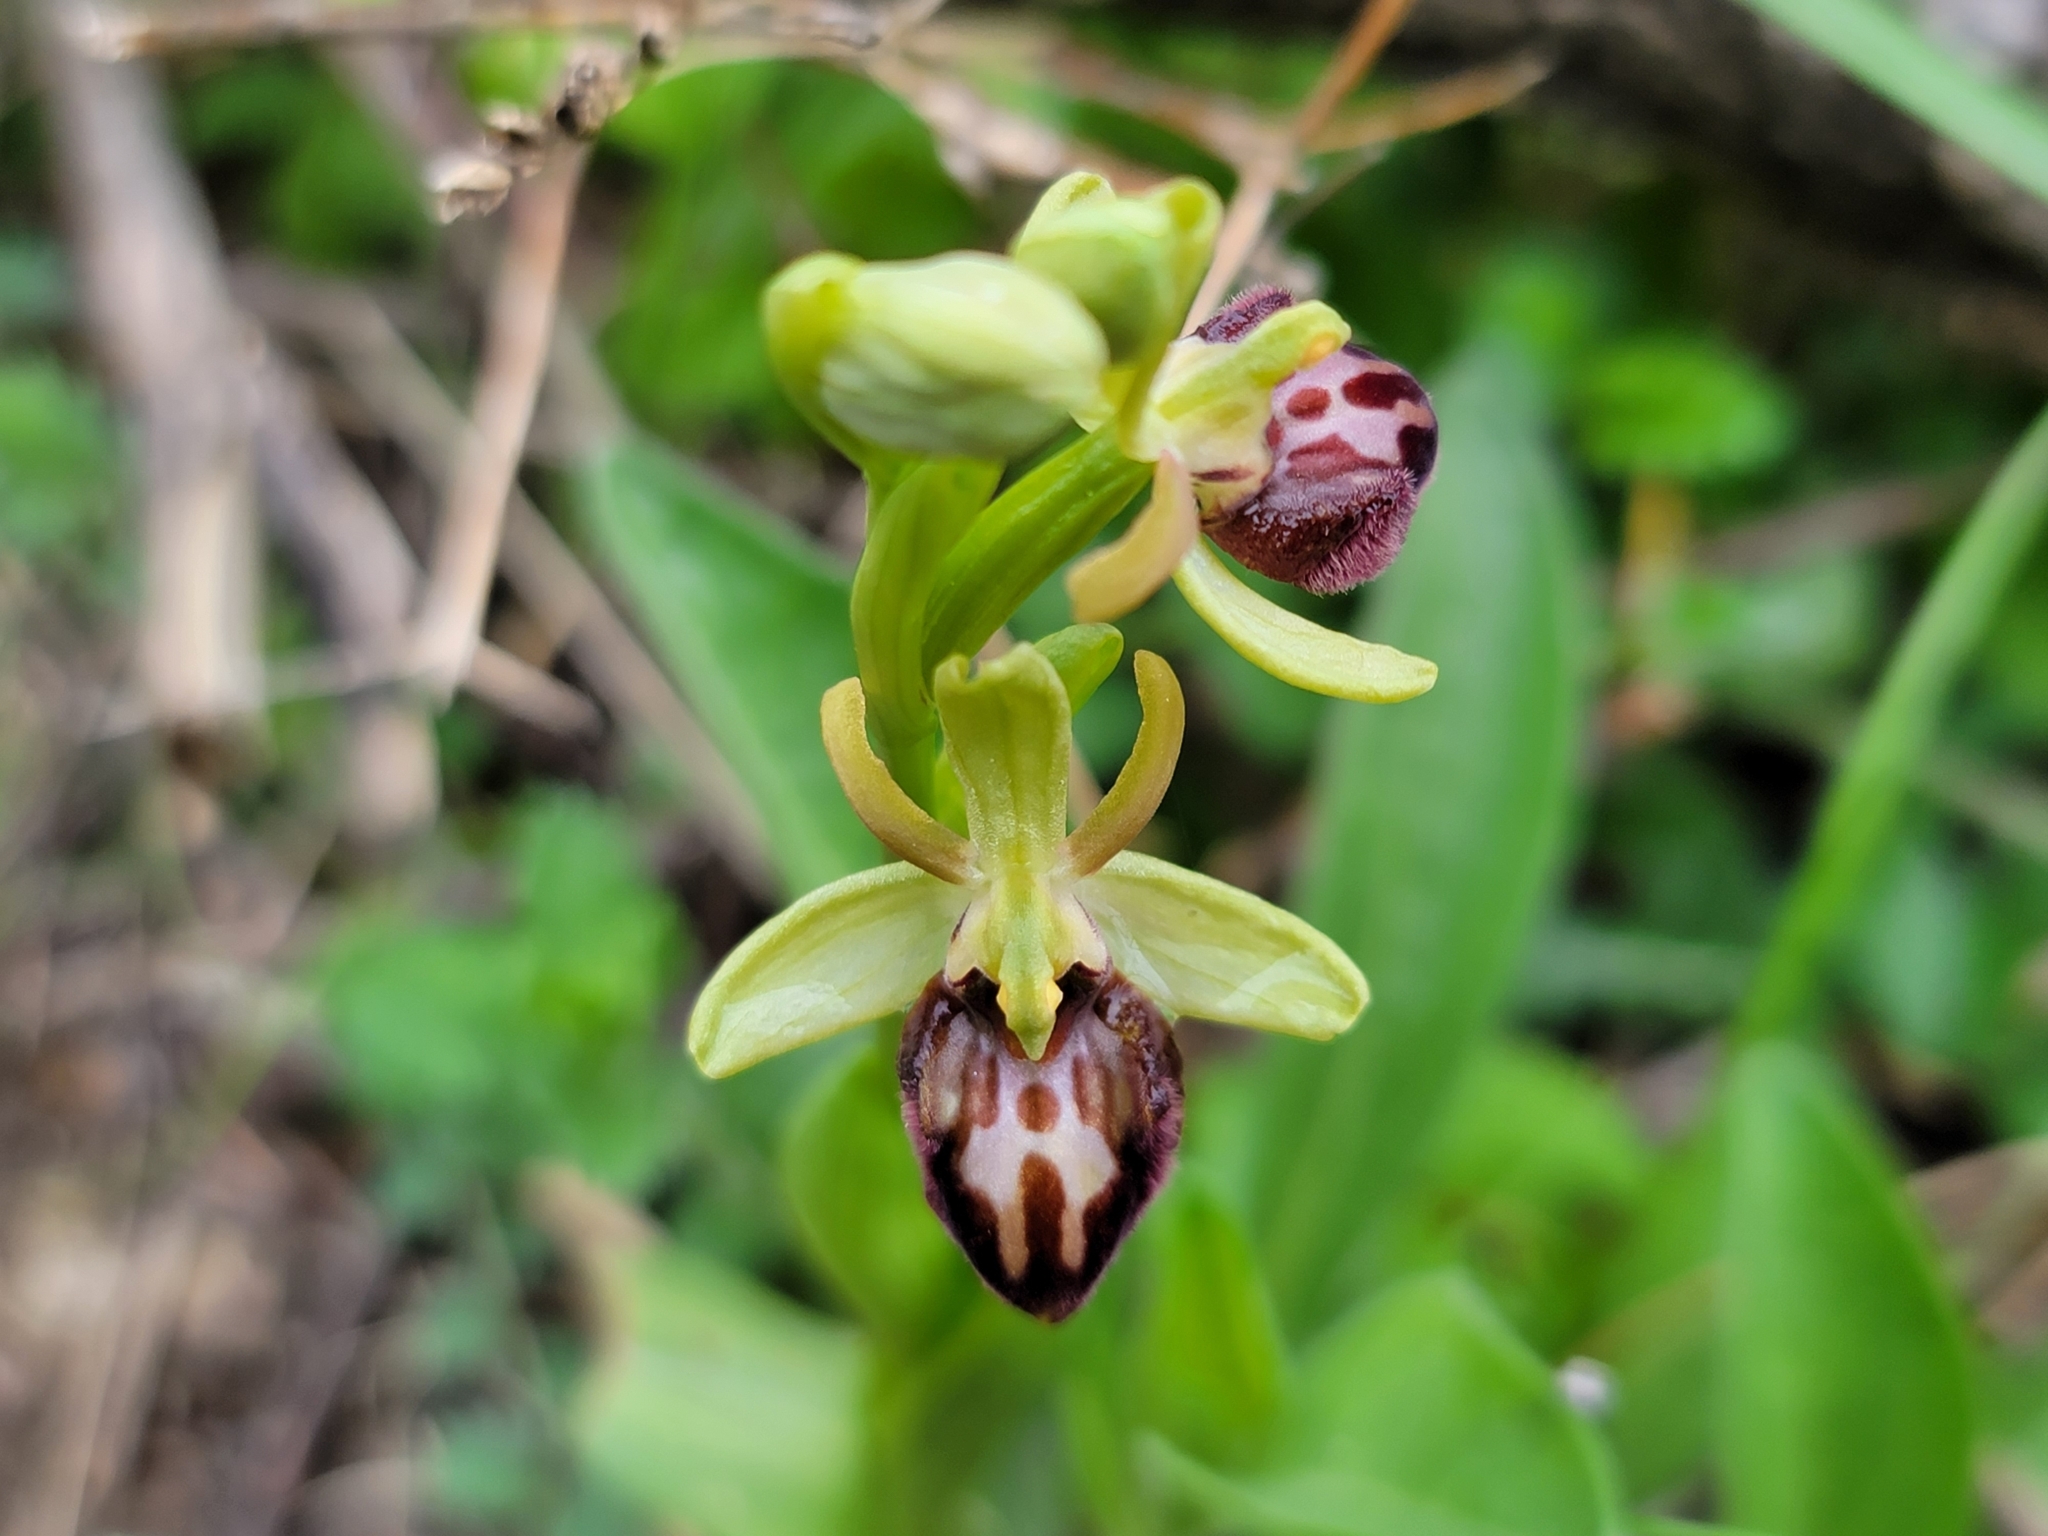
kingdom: Plantae
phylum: Tracheophyta
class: Liliopsida
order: Asparagales
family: Orchidaceae
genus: Ophrys
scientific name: Ophrys sphegodes
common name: Early spider-orchid
